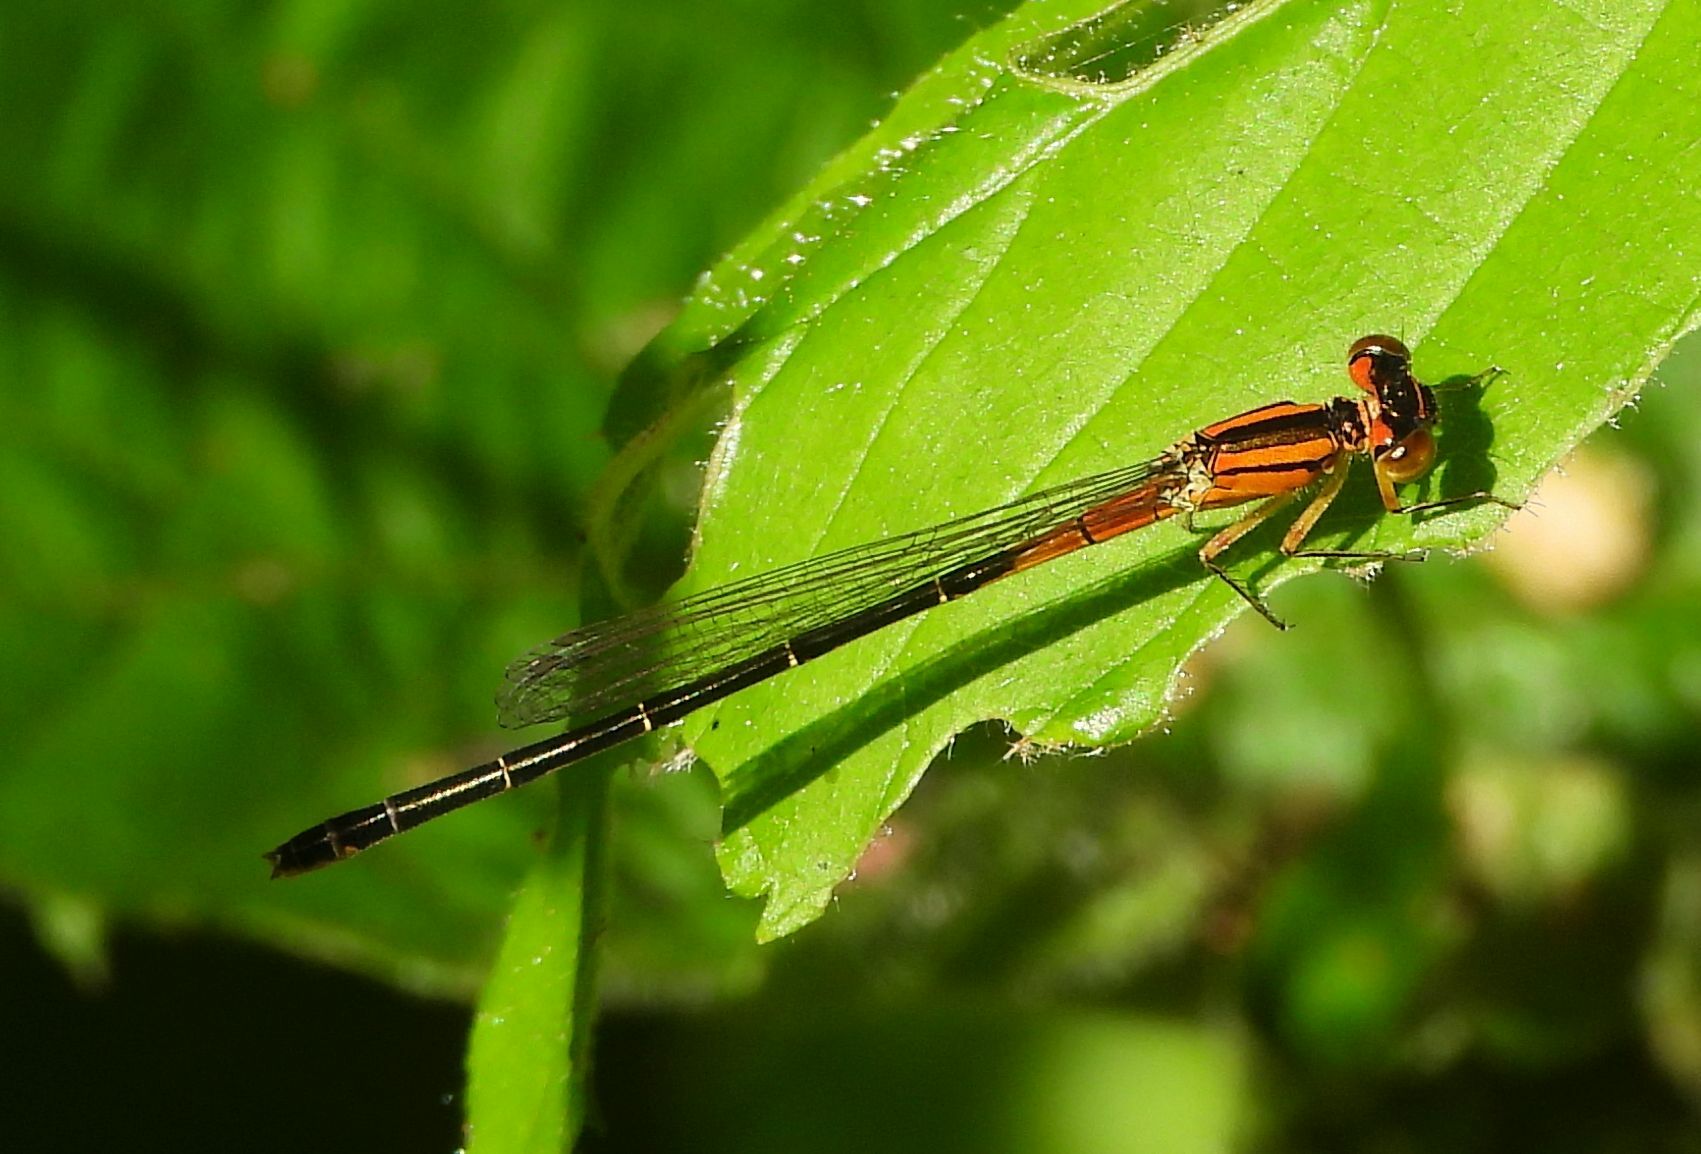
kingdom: Animalia
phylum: Arthropoda
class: Insecta
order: Odonata
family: Coenagrionidae
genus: Ischnura
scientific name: Ischnura verticalis
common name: Eastern forktail
